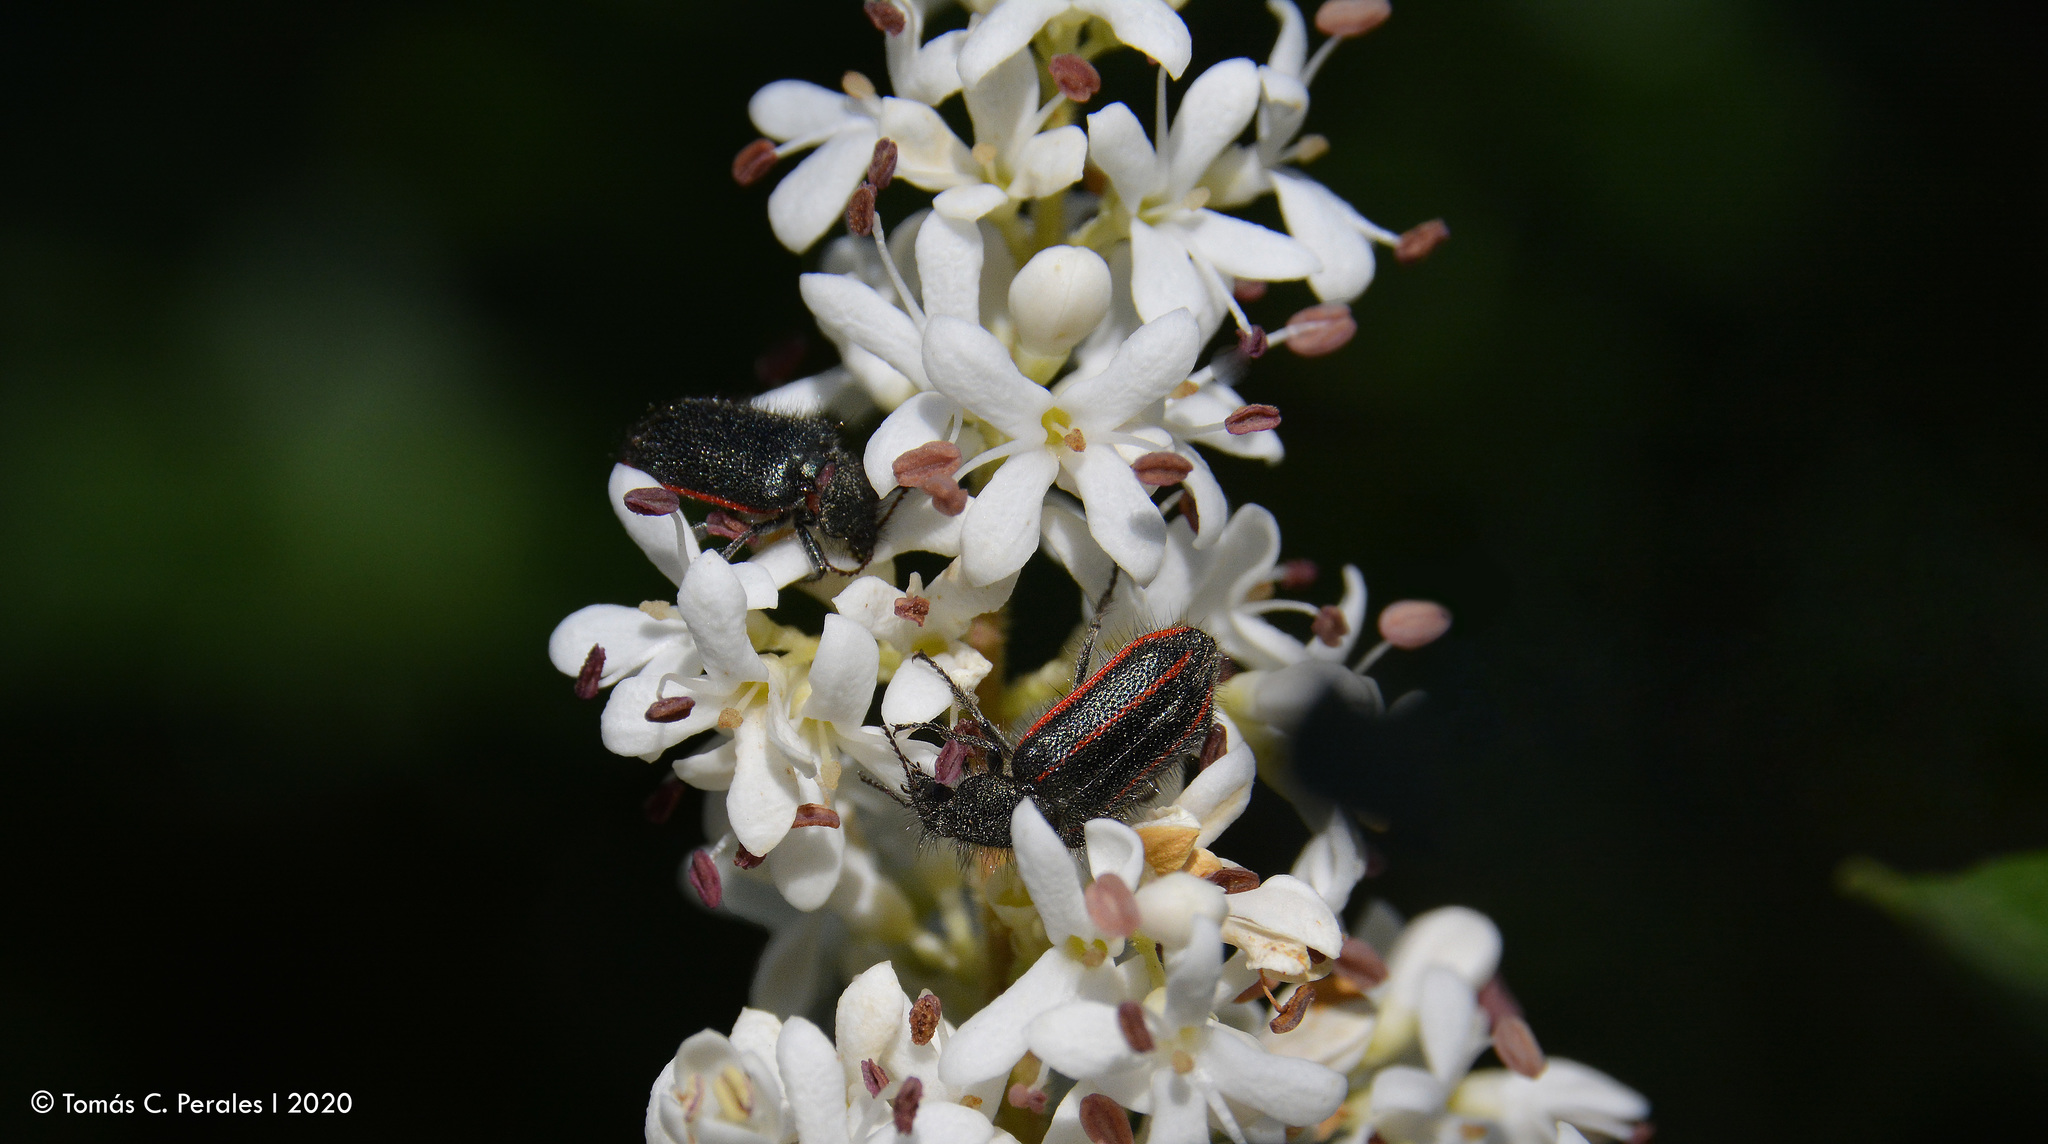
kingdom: Animalia
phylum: Arthropoda
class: Insecta
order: Coleoptera
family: Melyridae
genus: Astylus
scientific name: Astylus
